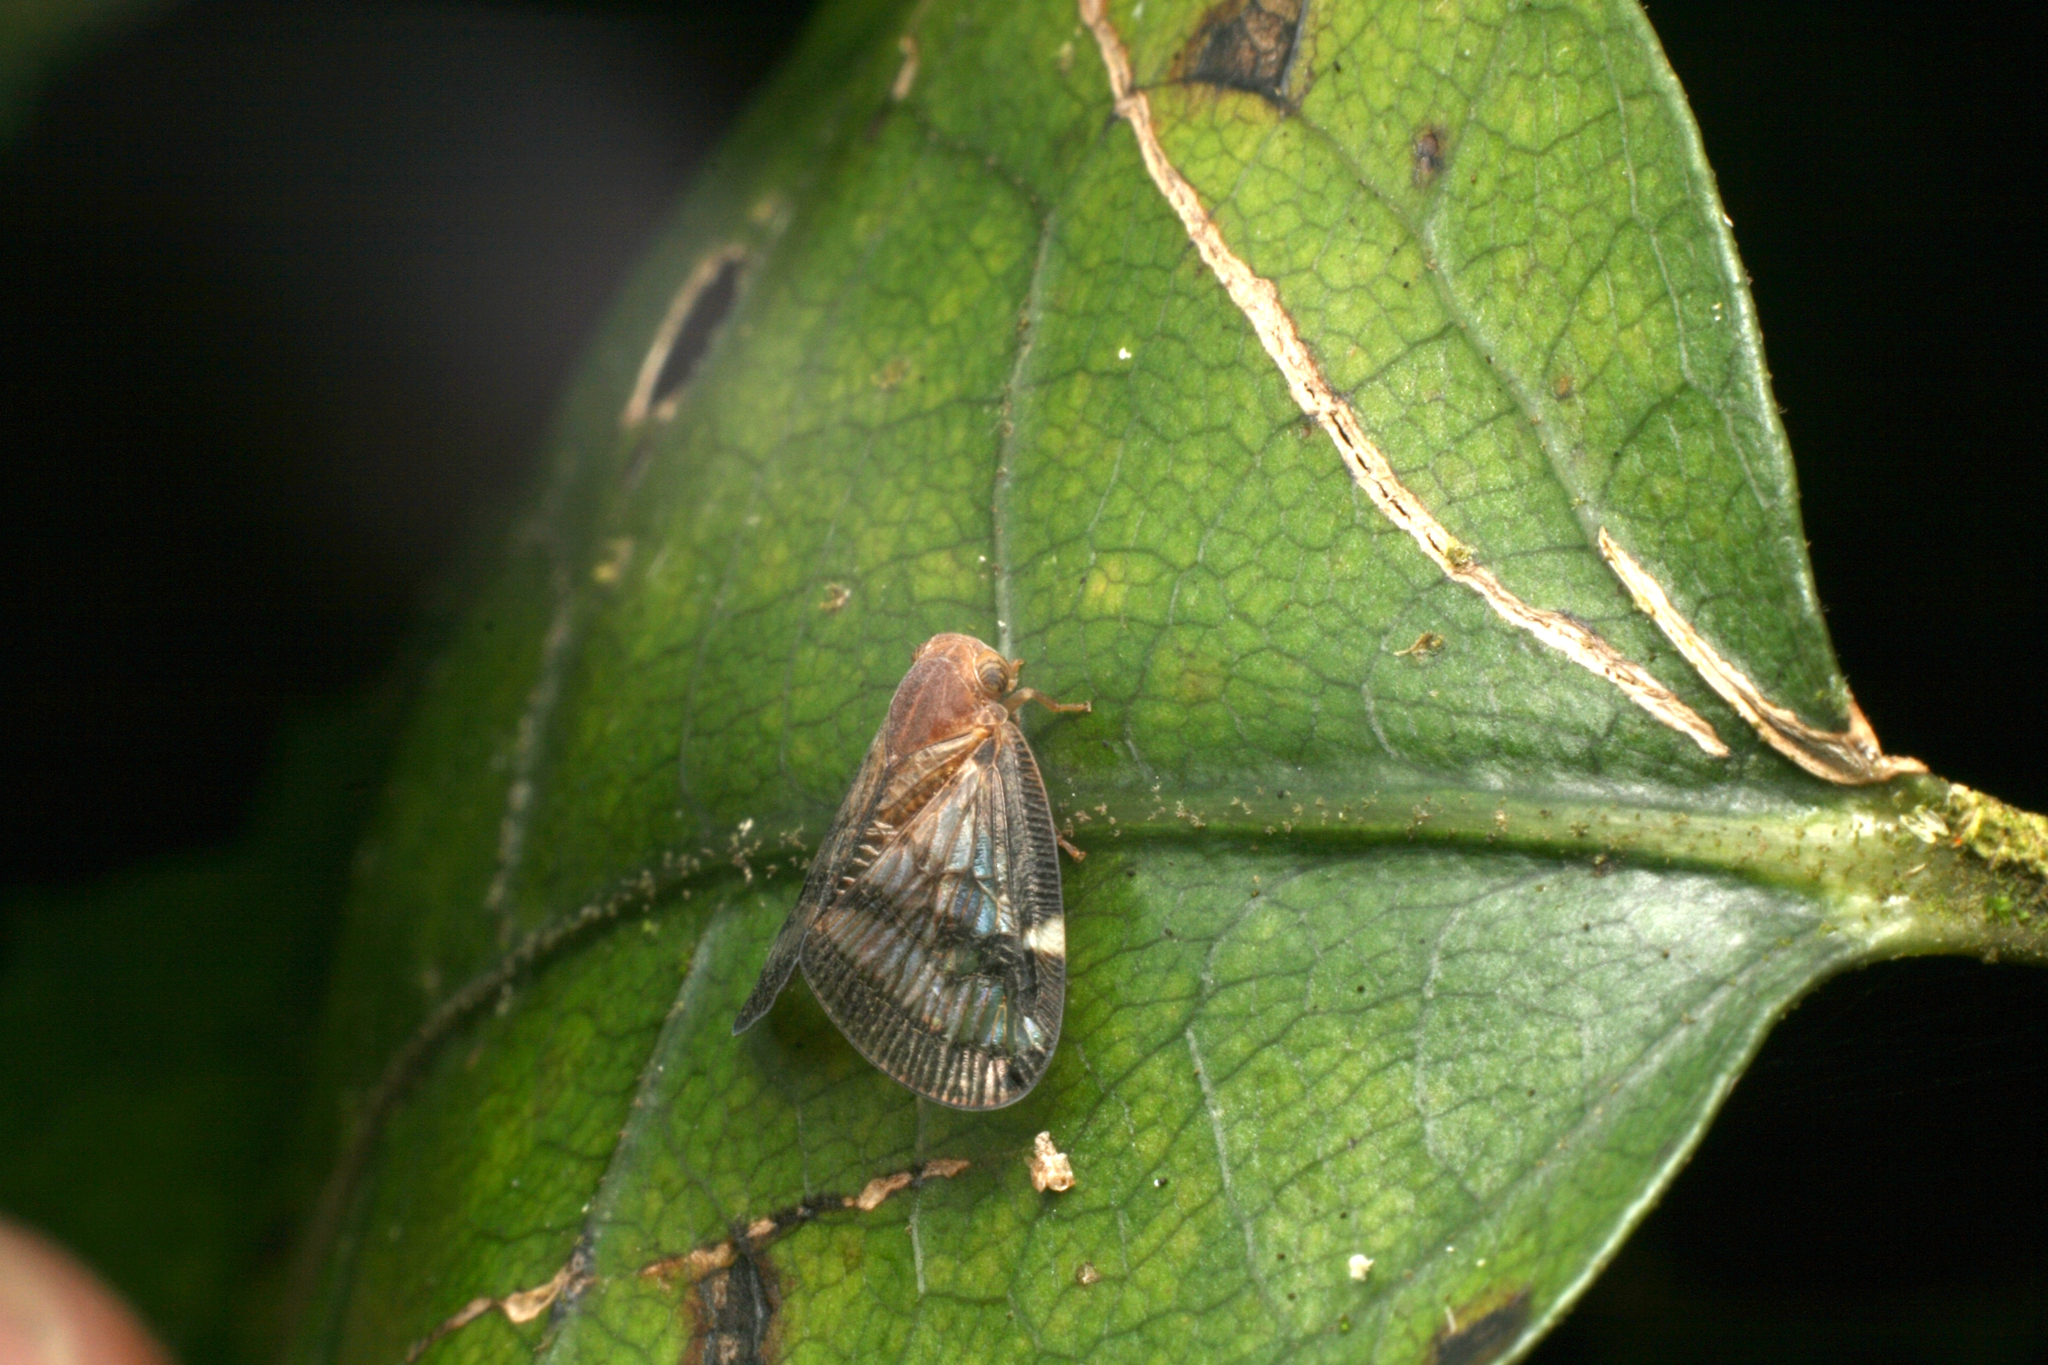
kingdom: Animalia
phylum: Arthropoda
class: Insecta
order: Hemiptera
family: Ricaniidae
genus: Scolypopa
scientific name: Scolypopa australis
